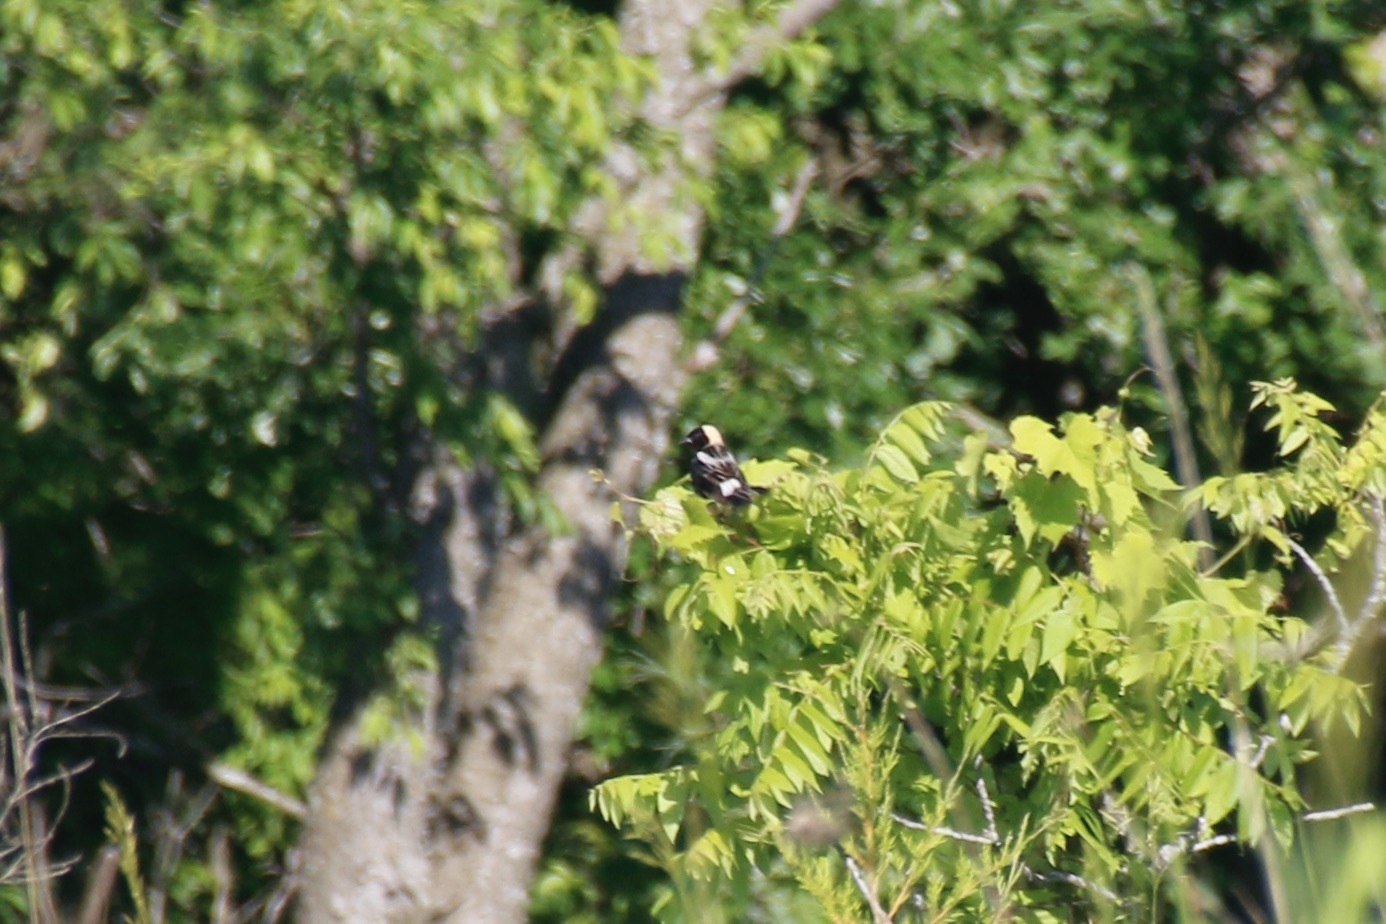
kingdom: Animalia
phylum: Chordata
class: Aves
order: Passeriformes
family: Icteridae
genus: Dolichonyx
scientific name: Dolichonyx oryzivorus
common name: Bobolink
